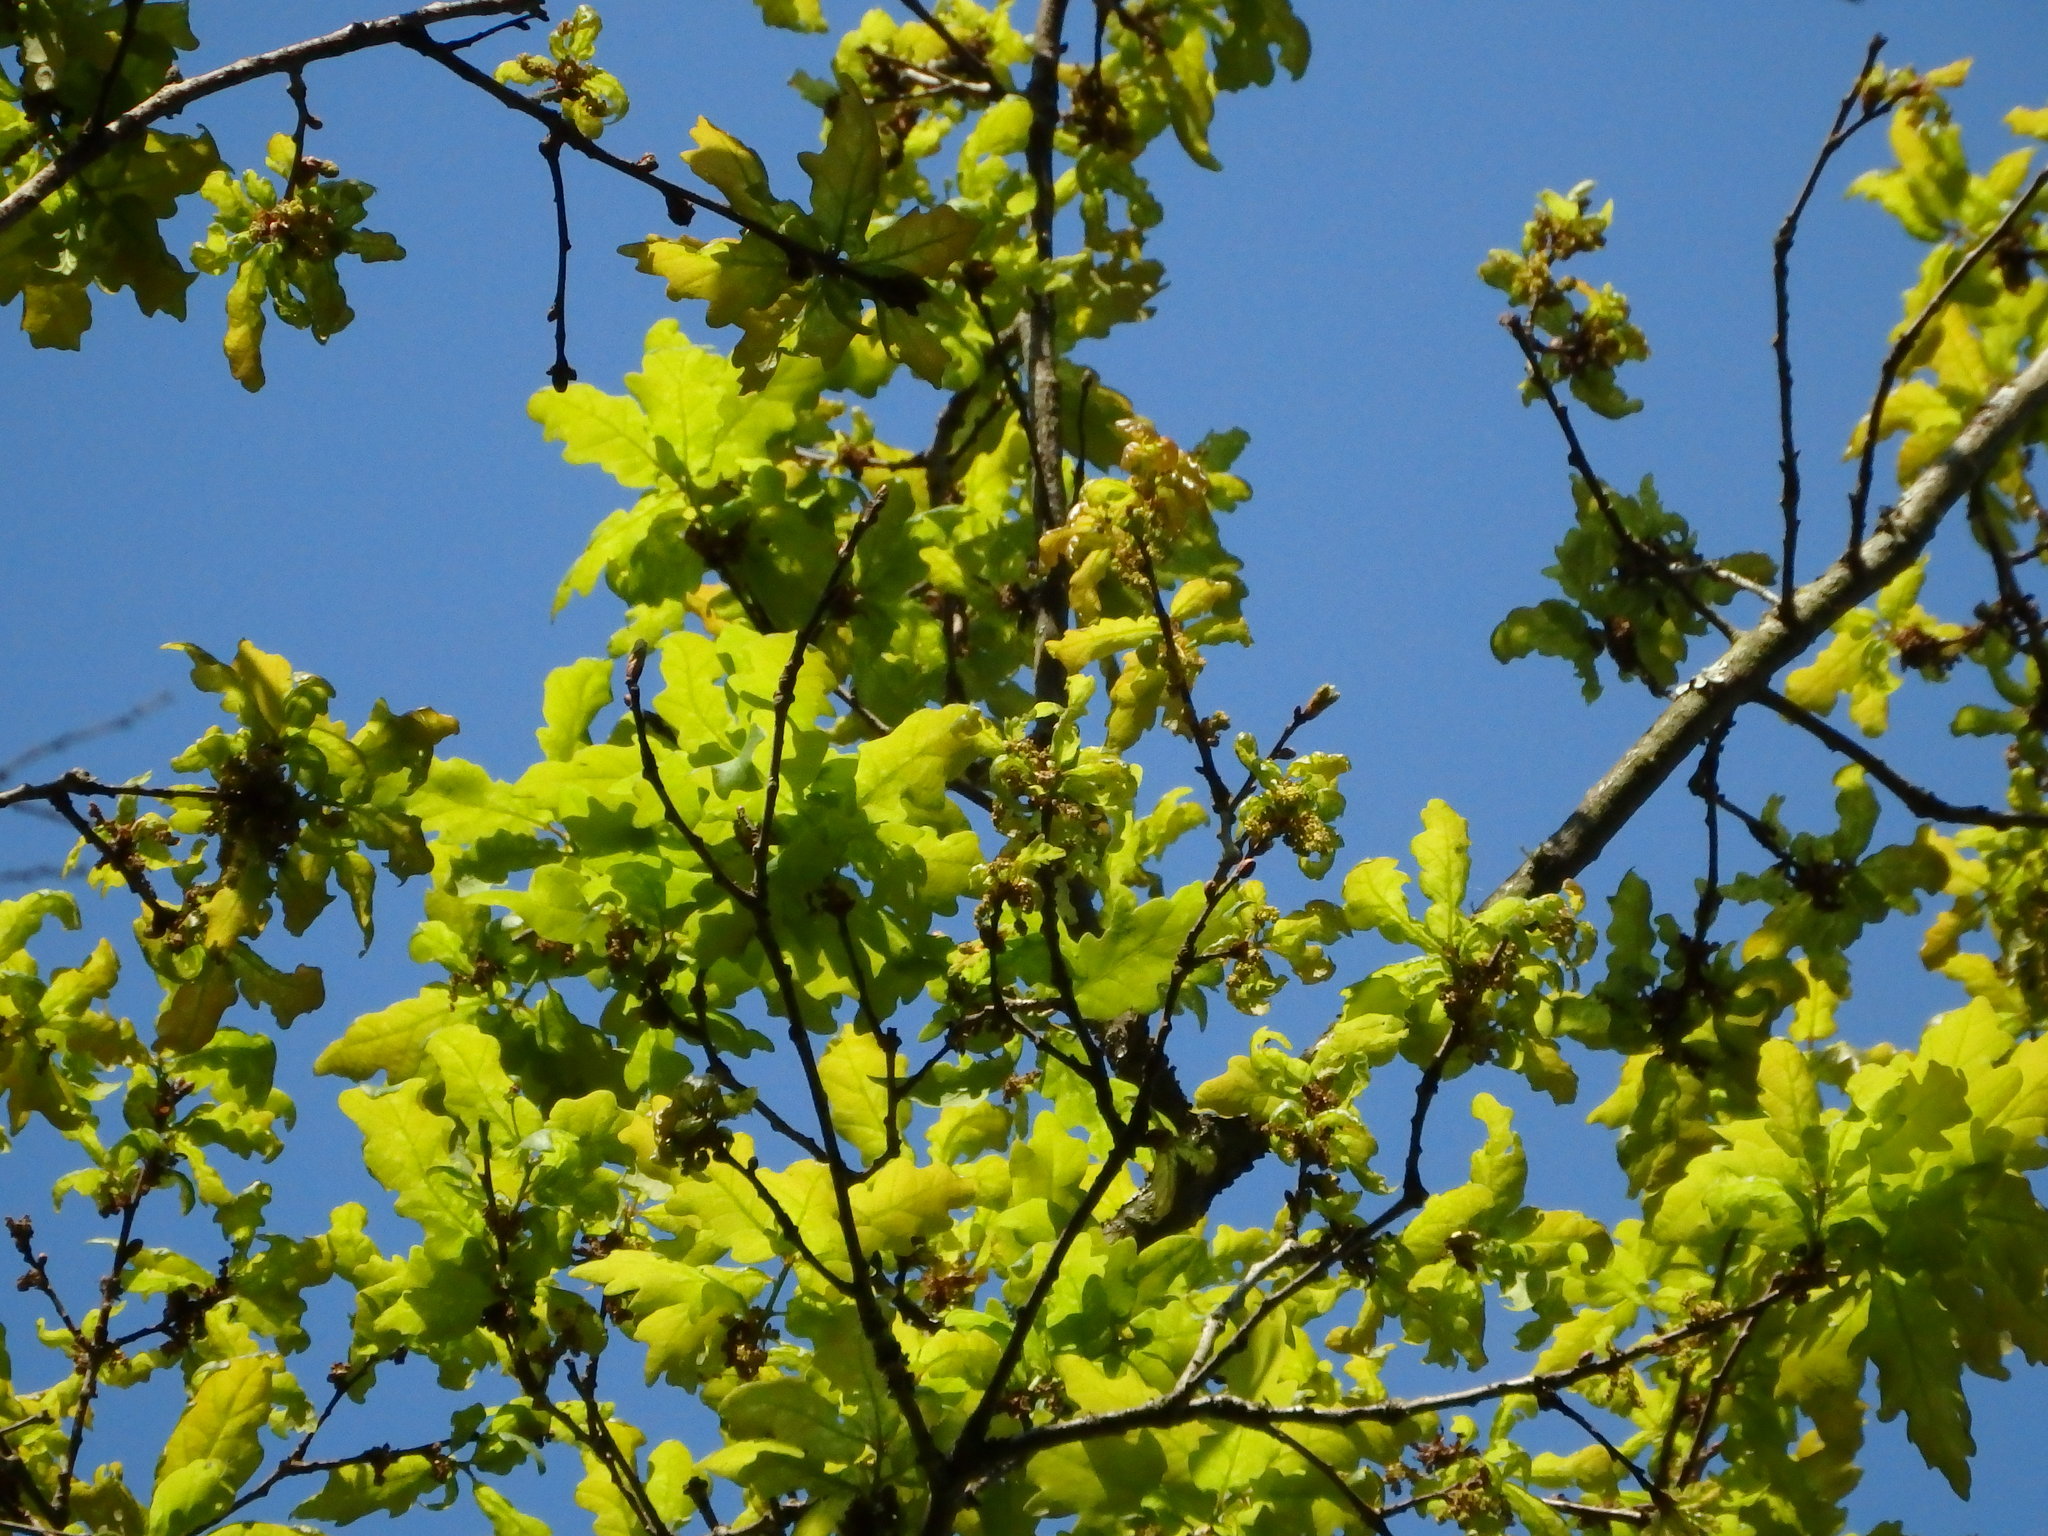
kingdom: Plantae
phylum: Tracheophyta
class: Magnoliopsida
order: Fagales
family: Fagaceae
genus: Quercus
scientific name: Quercus orocantabrica
